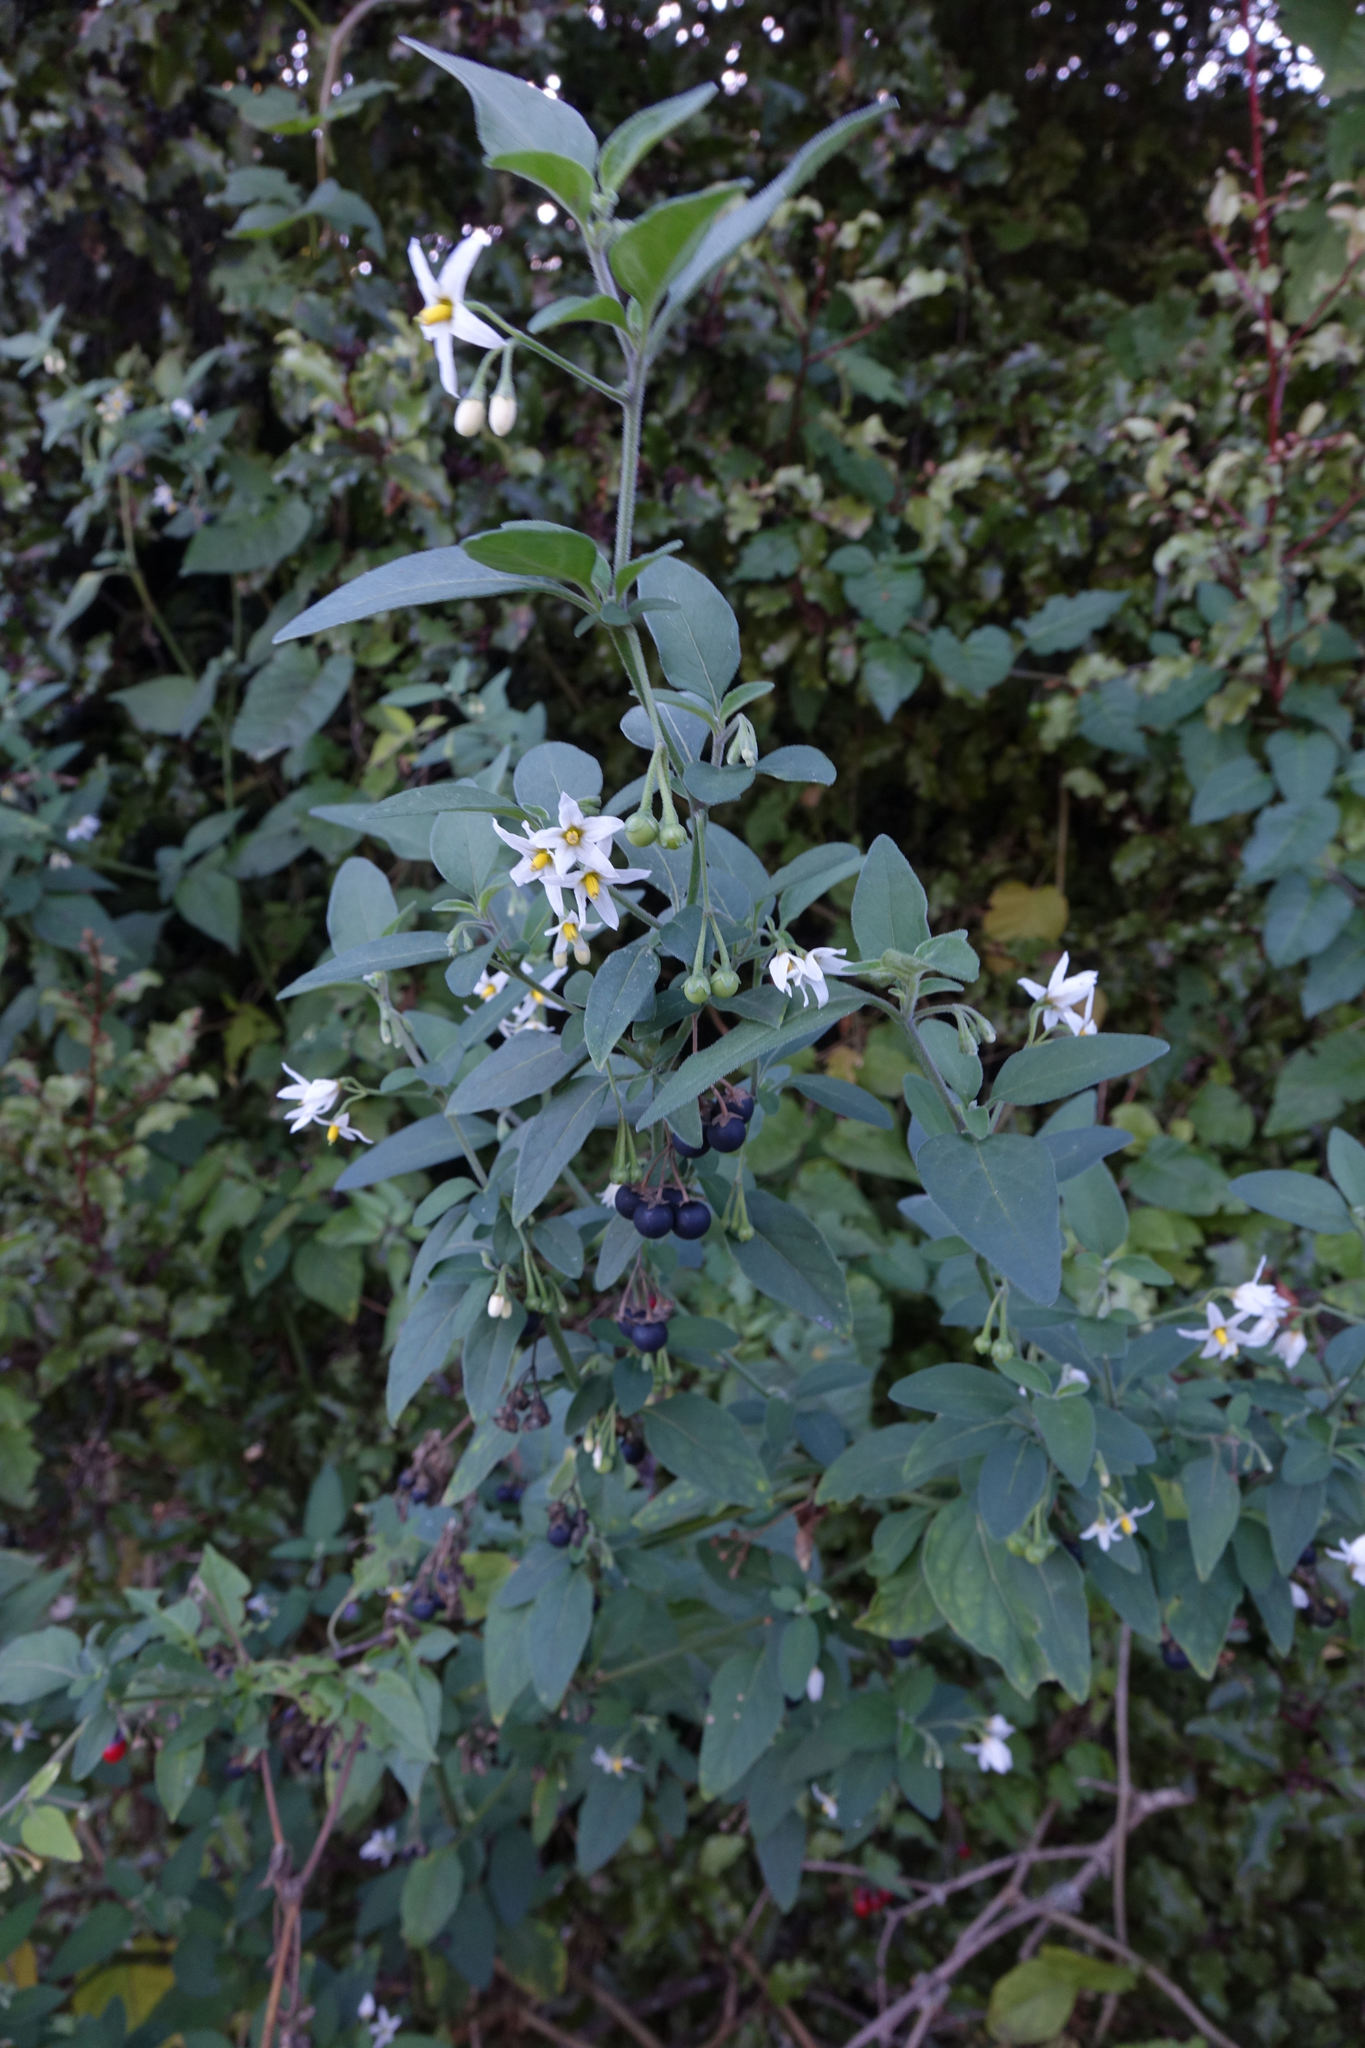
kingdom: Plantae
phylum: Tracheophyta
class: Magnoliopsida
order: Solanales
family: Solanaceae
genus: Solanum
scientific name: Solanum chenopodioides
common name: Tall nightshade
